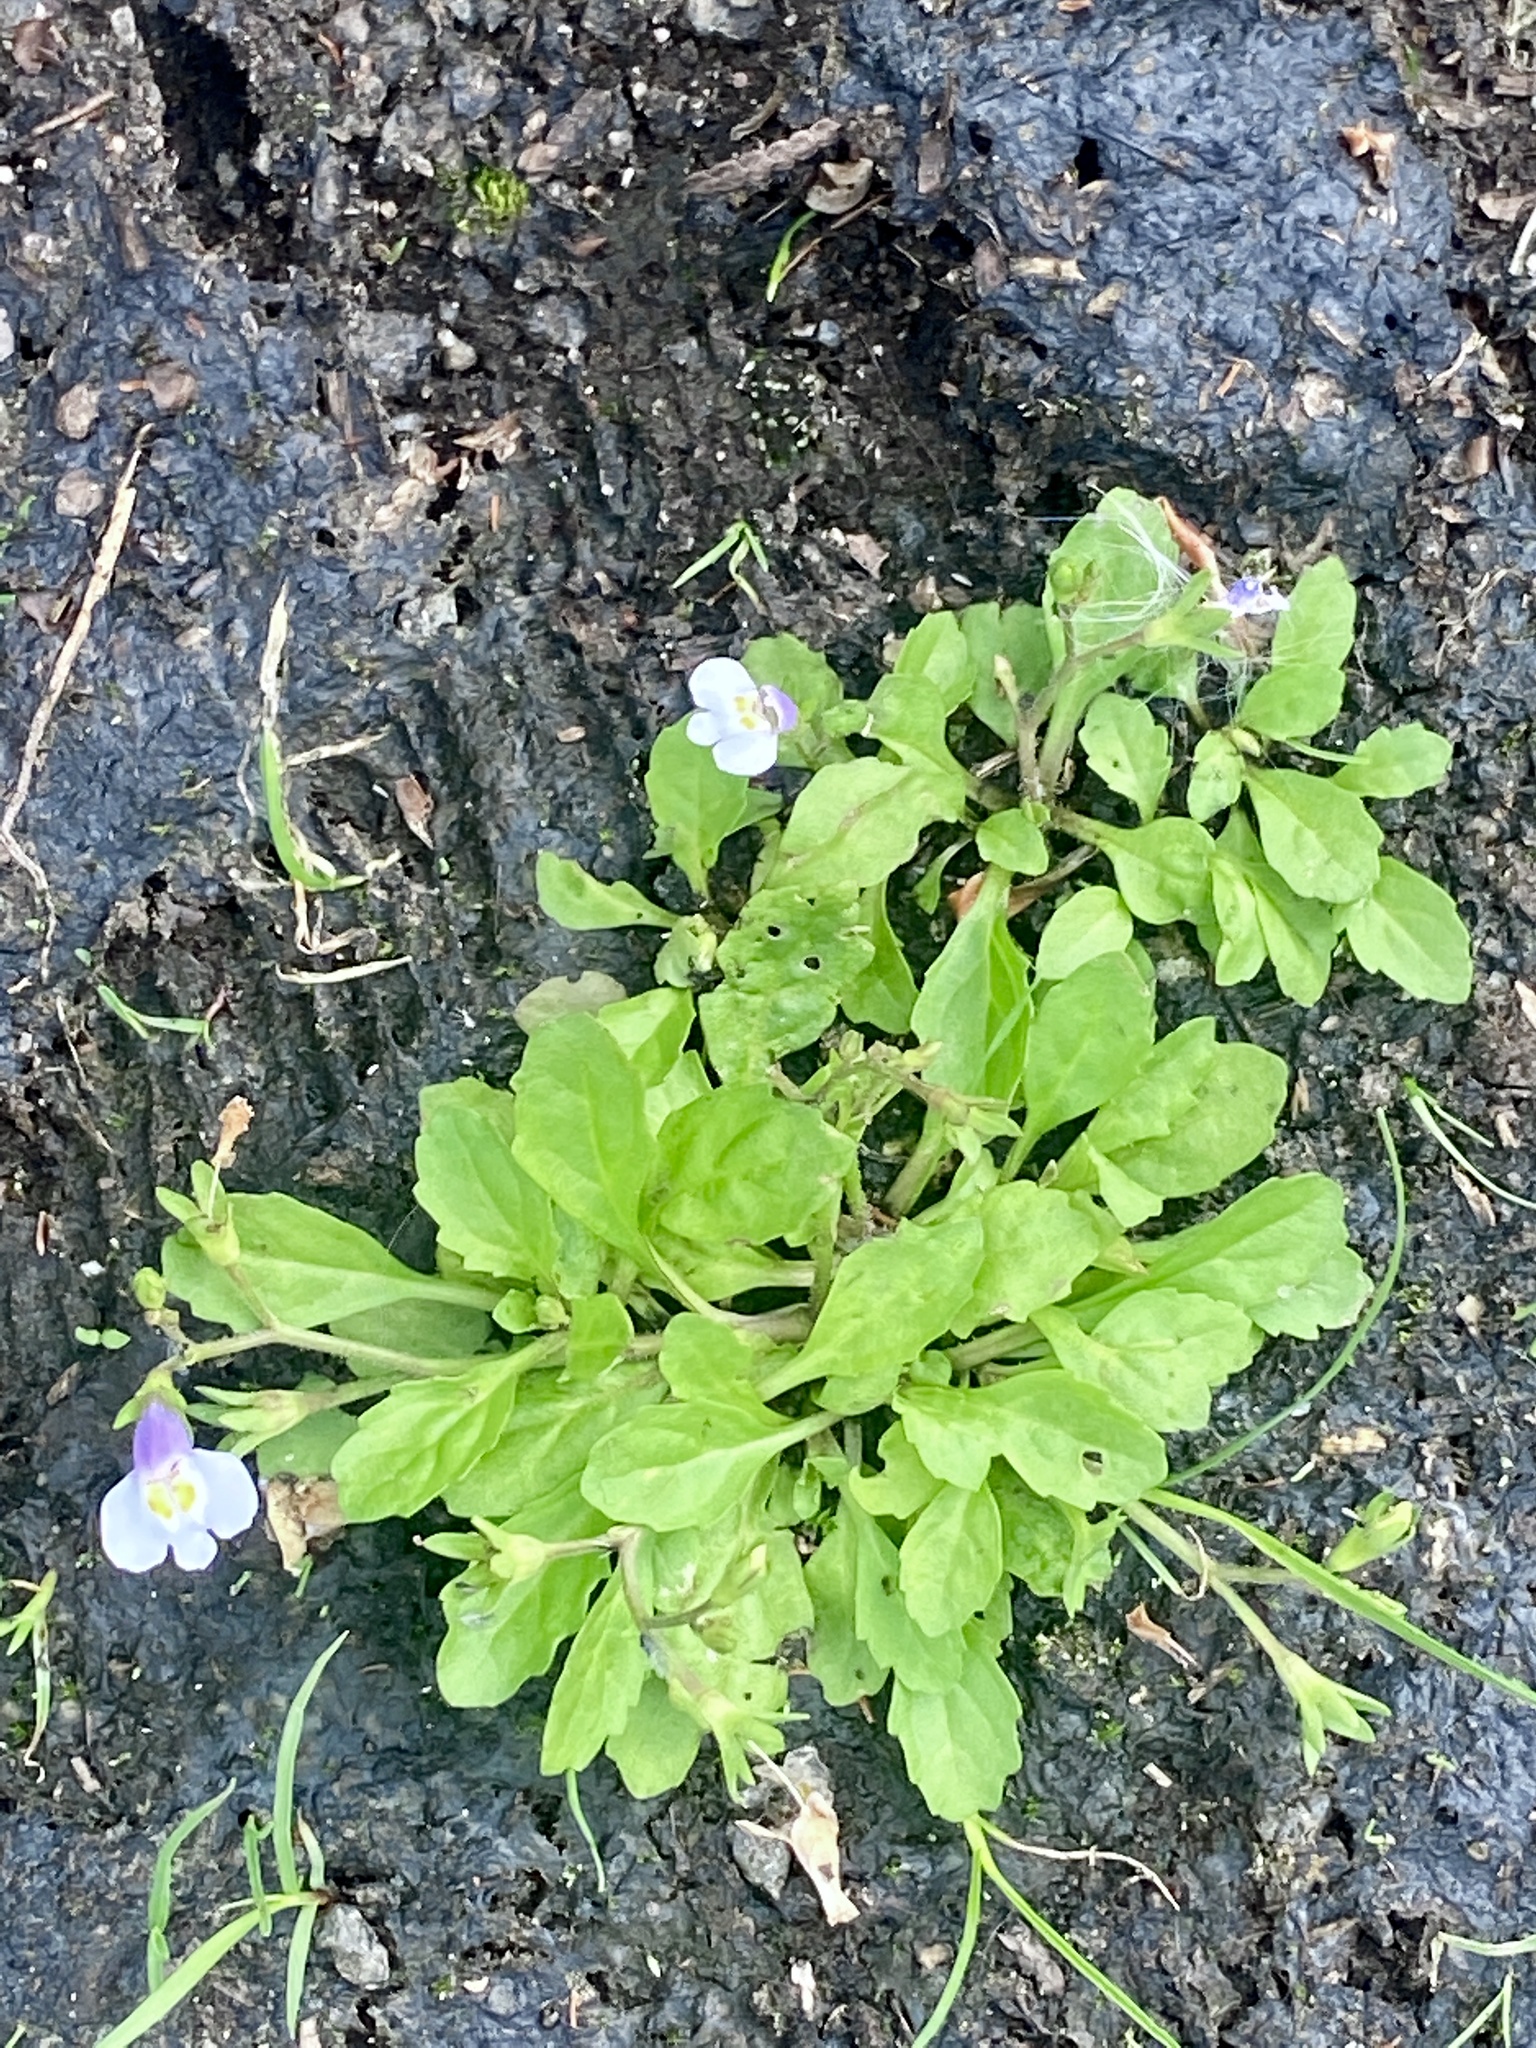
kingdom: Plantae
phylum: Tracheophyta
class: Magnoliopsida
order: Lamiales
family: Mazaceae
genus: Mazus
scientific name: Mazus pumilus
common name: Japanese mazus
